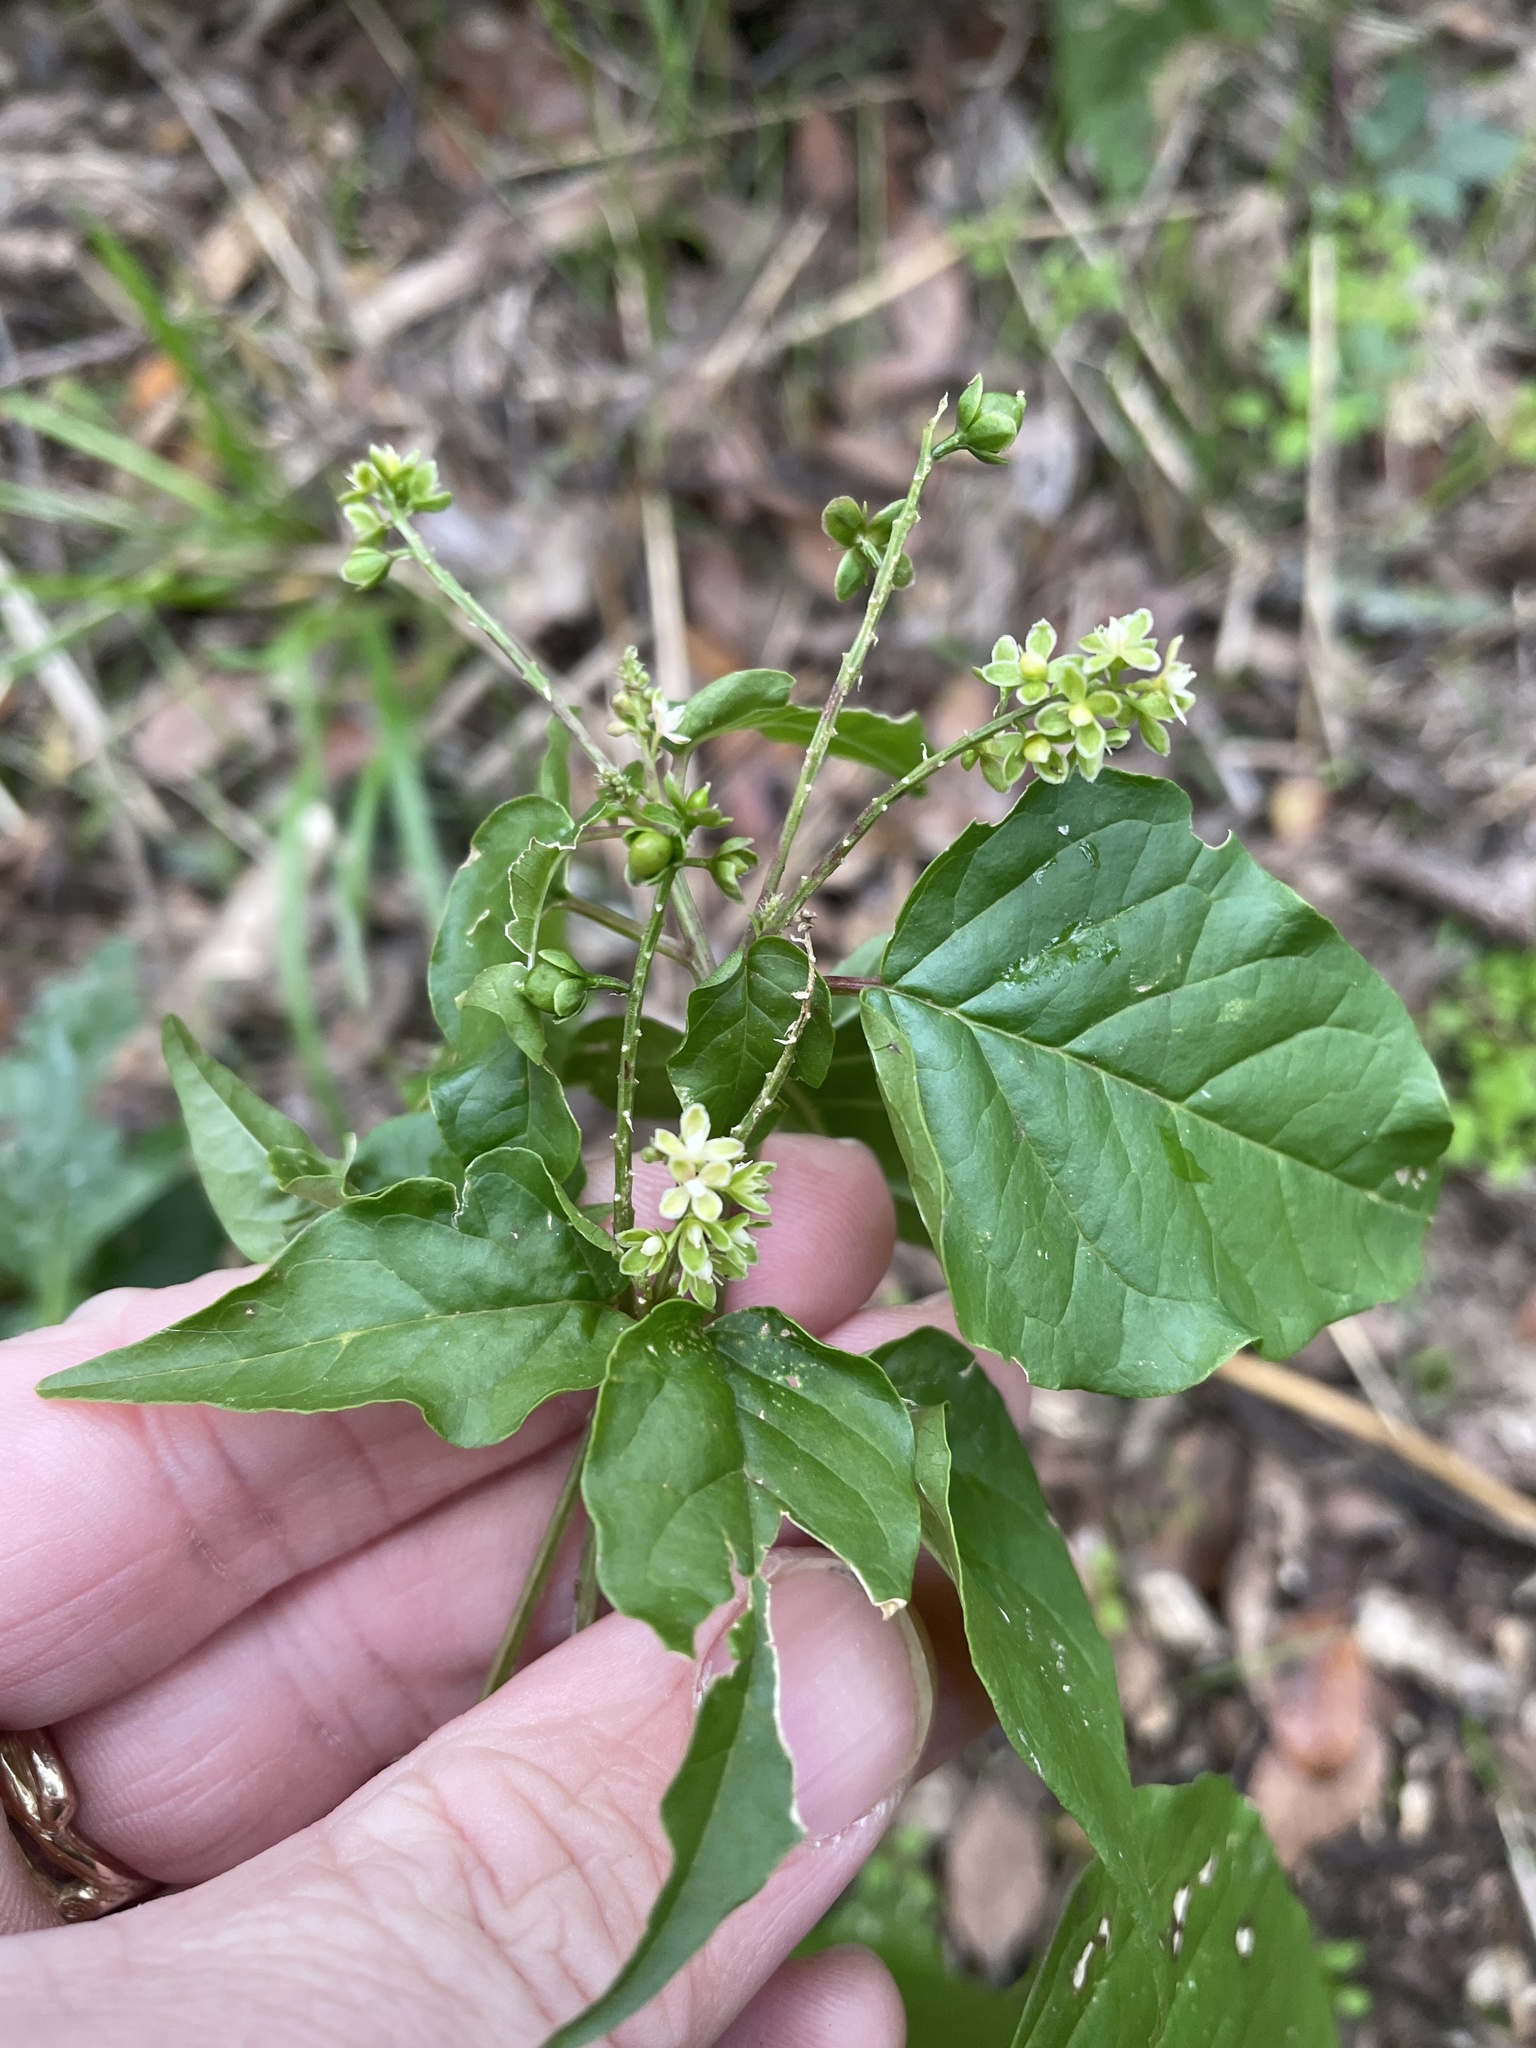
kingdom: Plantae
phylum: Tracheophyta
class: Magnoliopsida
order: Caryophyllales
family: Phytolaccaceae
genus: Rivina
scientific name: Rivina humilis
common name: Rougeplant
